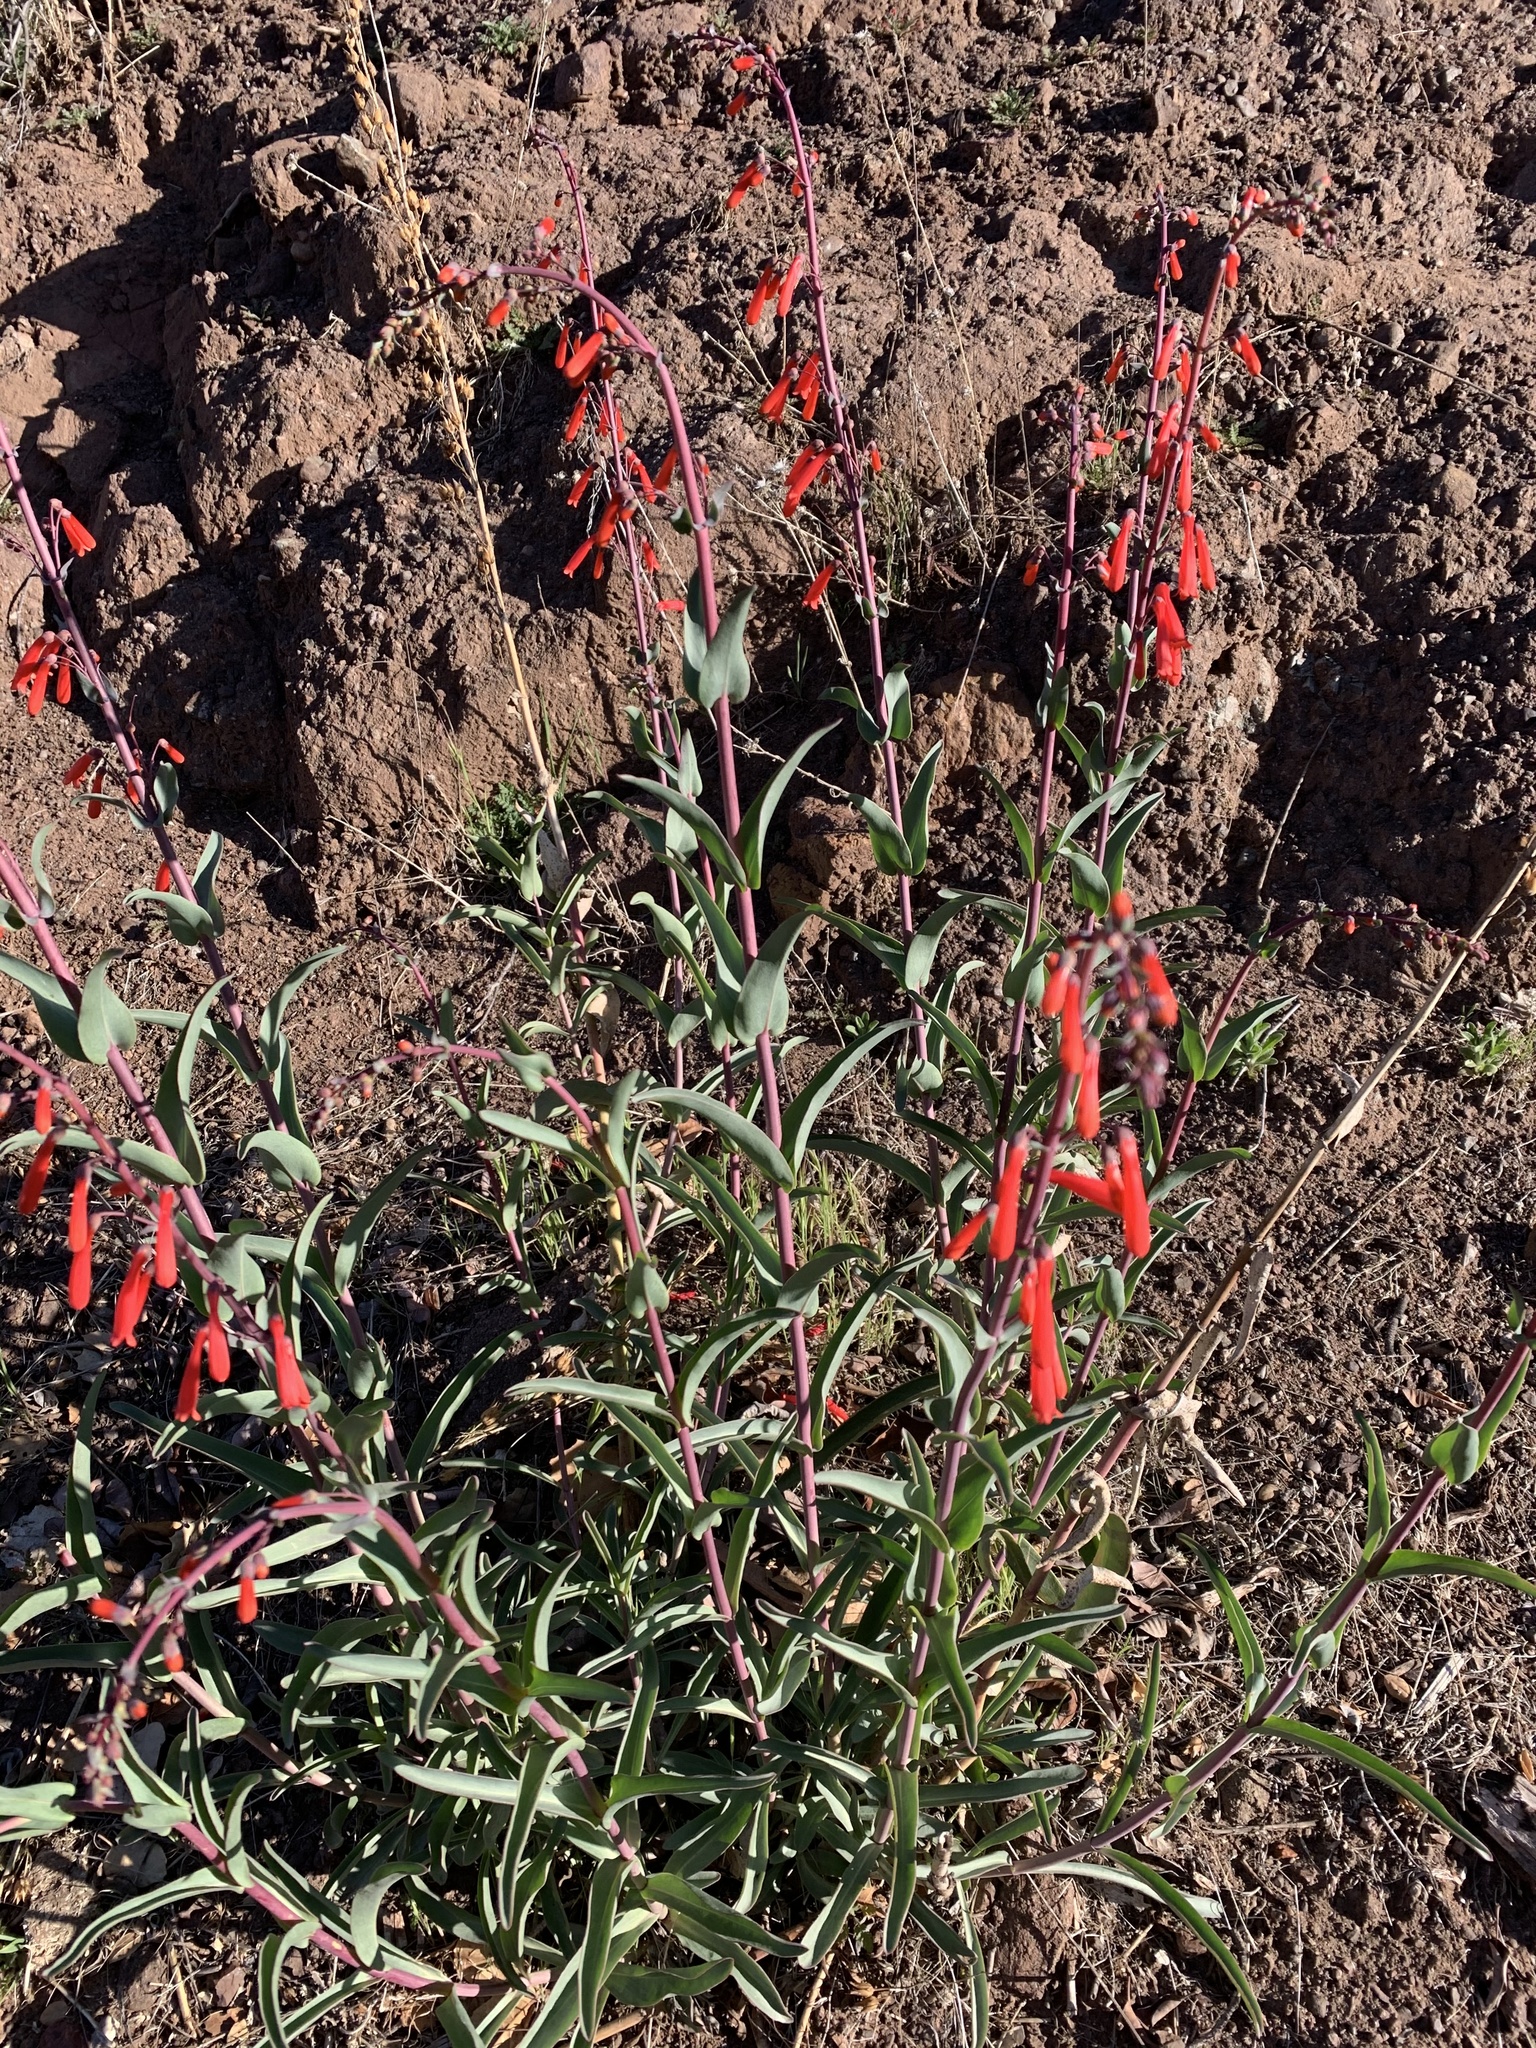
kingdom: Plantae
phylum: Tracheophyta
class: Magnoliopsida
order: Lamiales
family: Plantaginaceae
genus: Penstemon
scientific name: Penstemon centranthifolius
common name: Scarlet bugler
